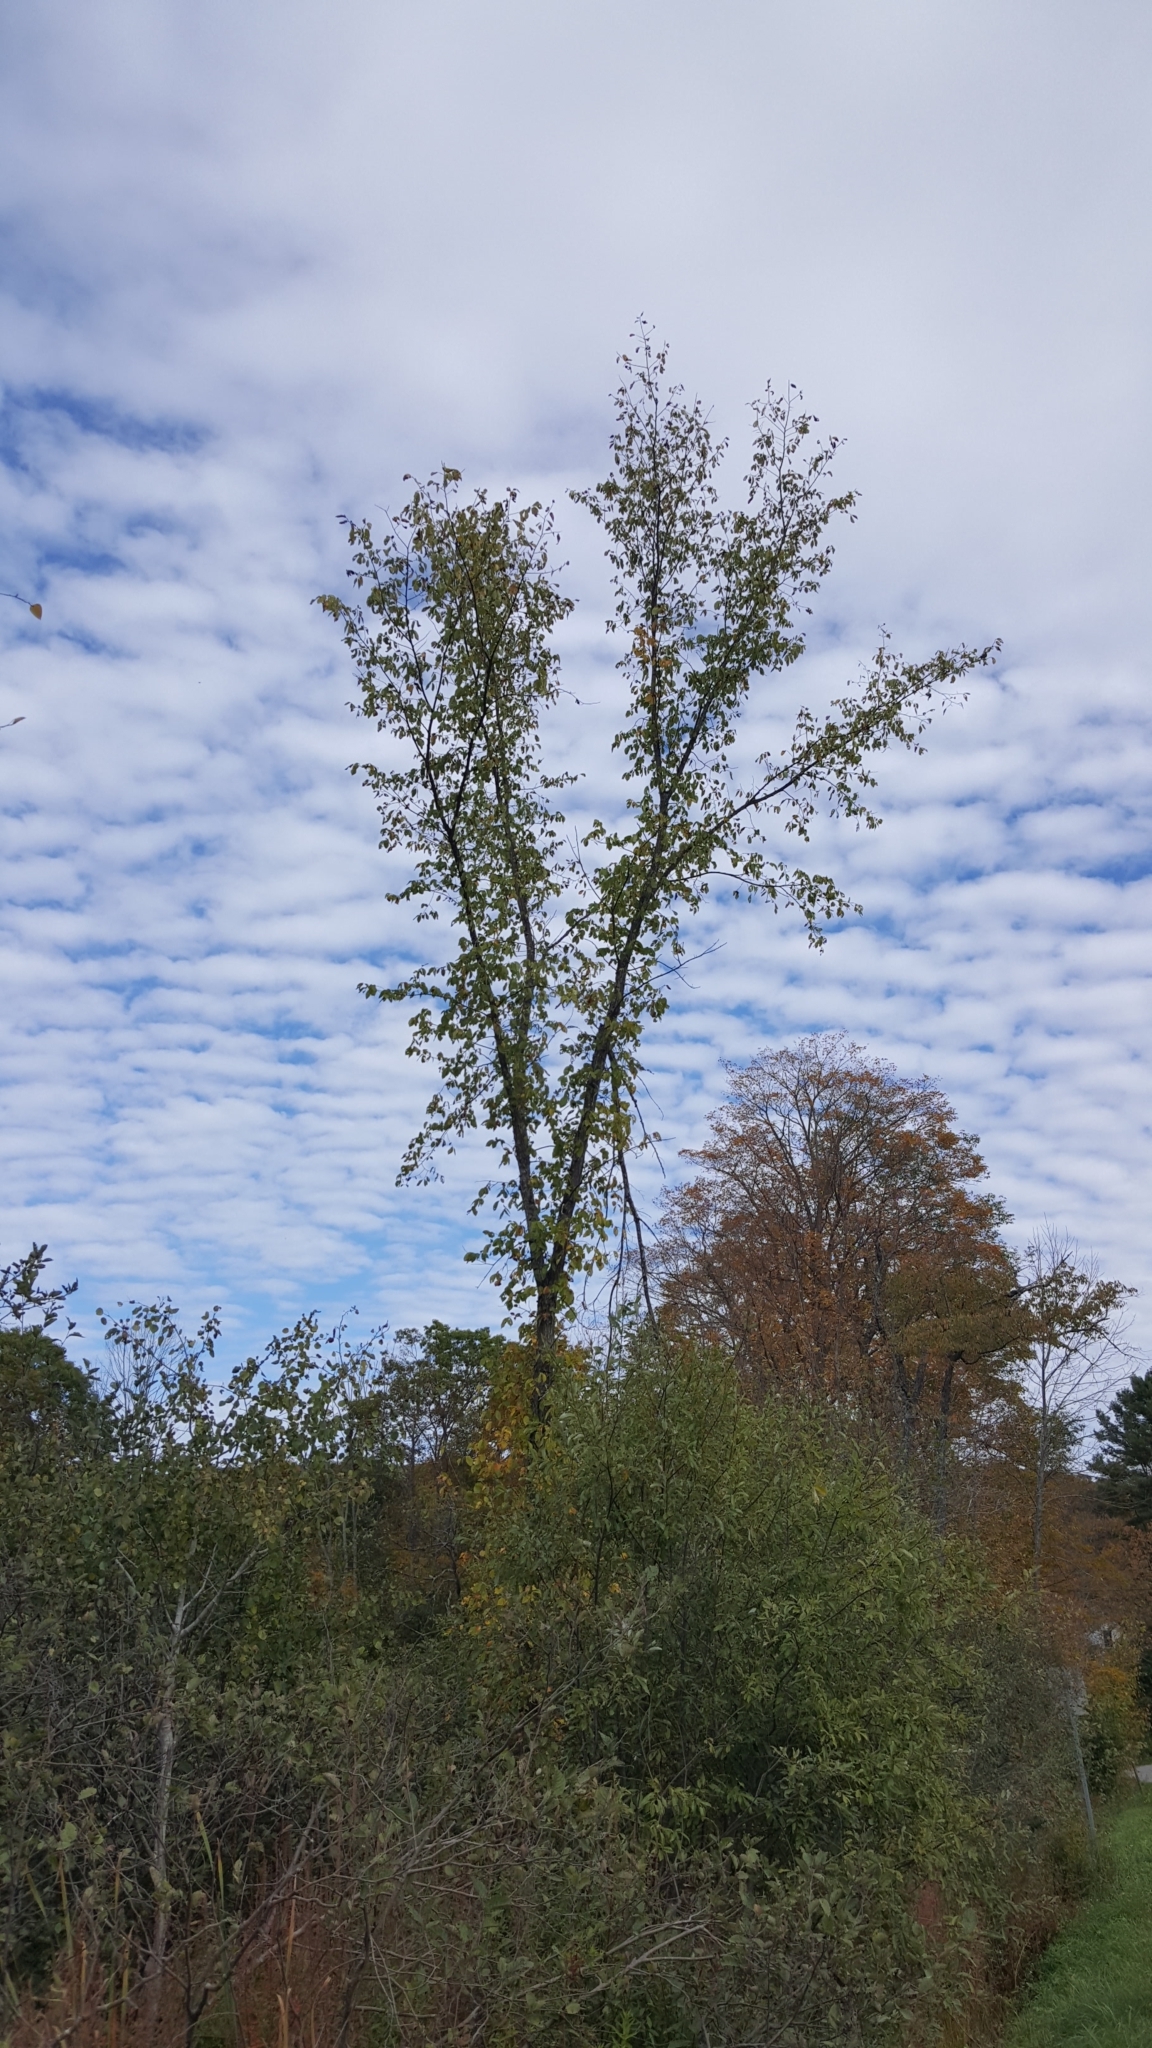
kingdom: Plantae
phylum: Tracheophyta
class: Magnoliopsida
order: Rosales
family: Ulmaceae
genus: Ulmus
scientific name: Ulmus americana
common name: American elm
